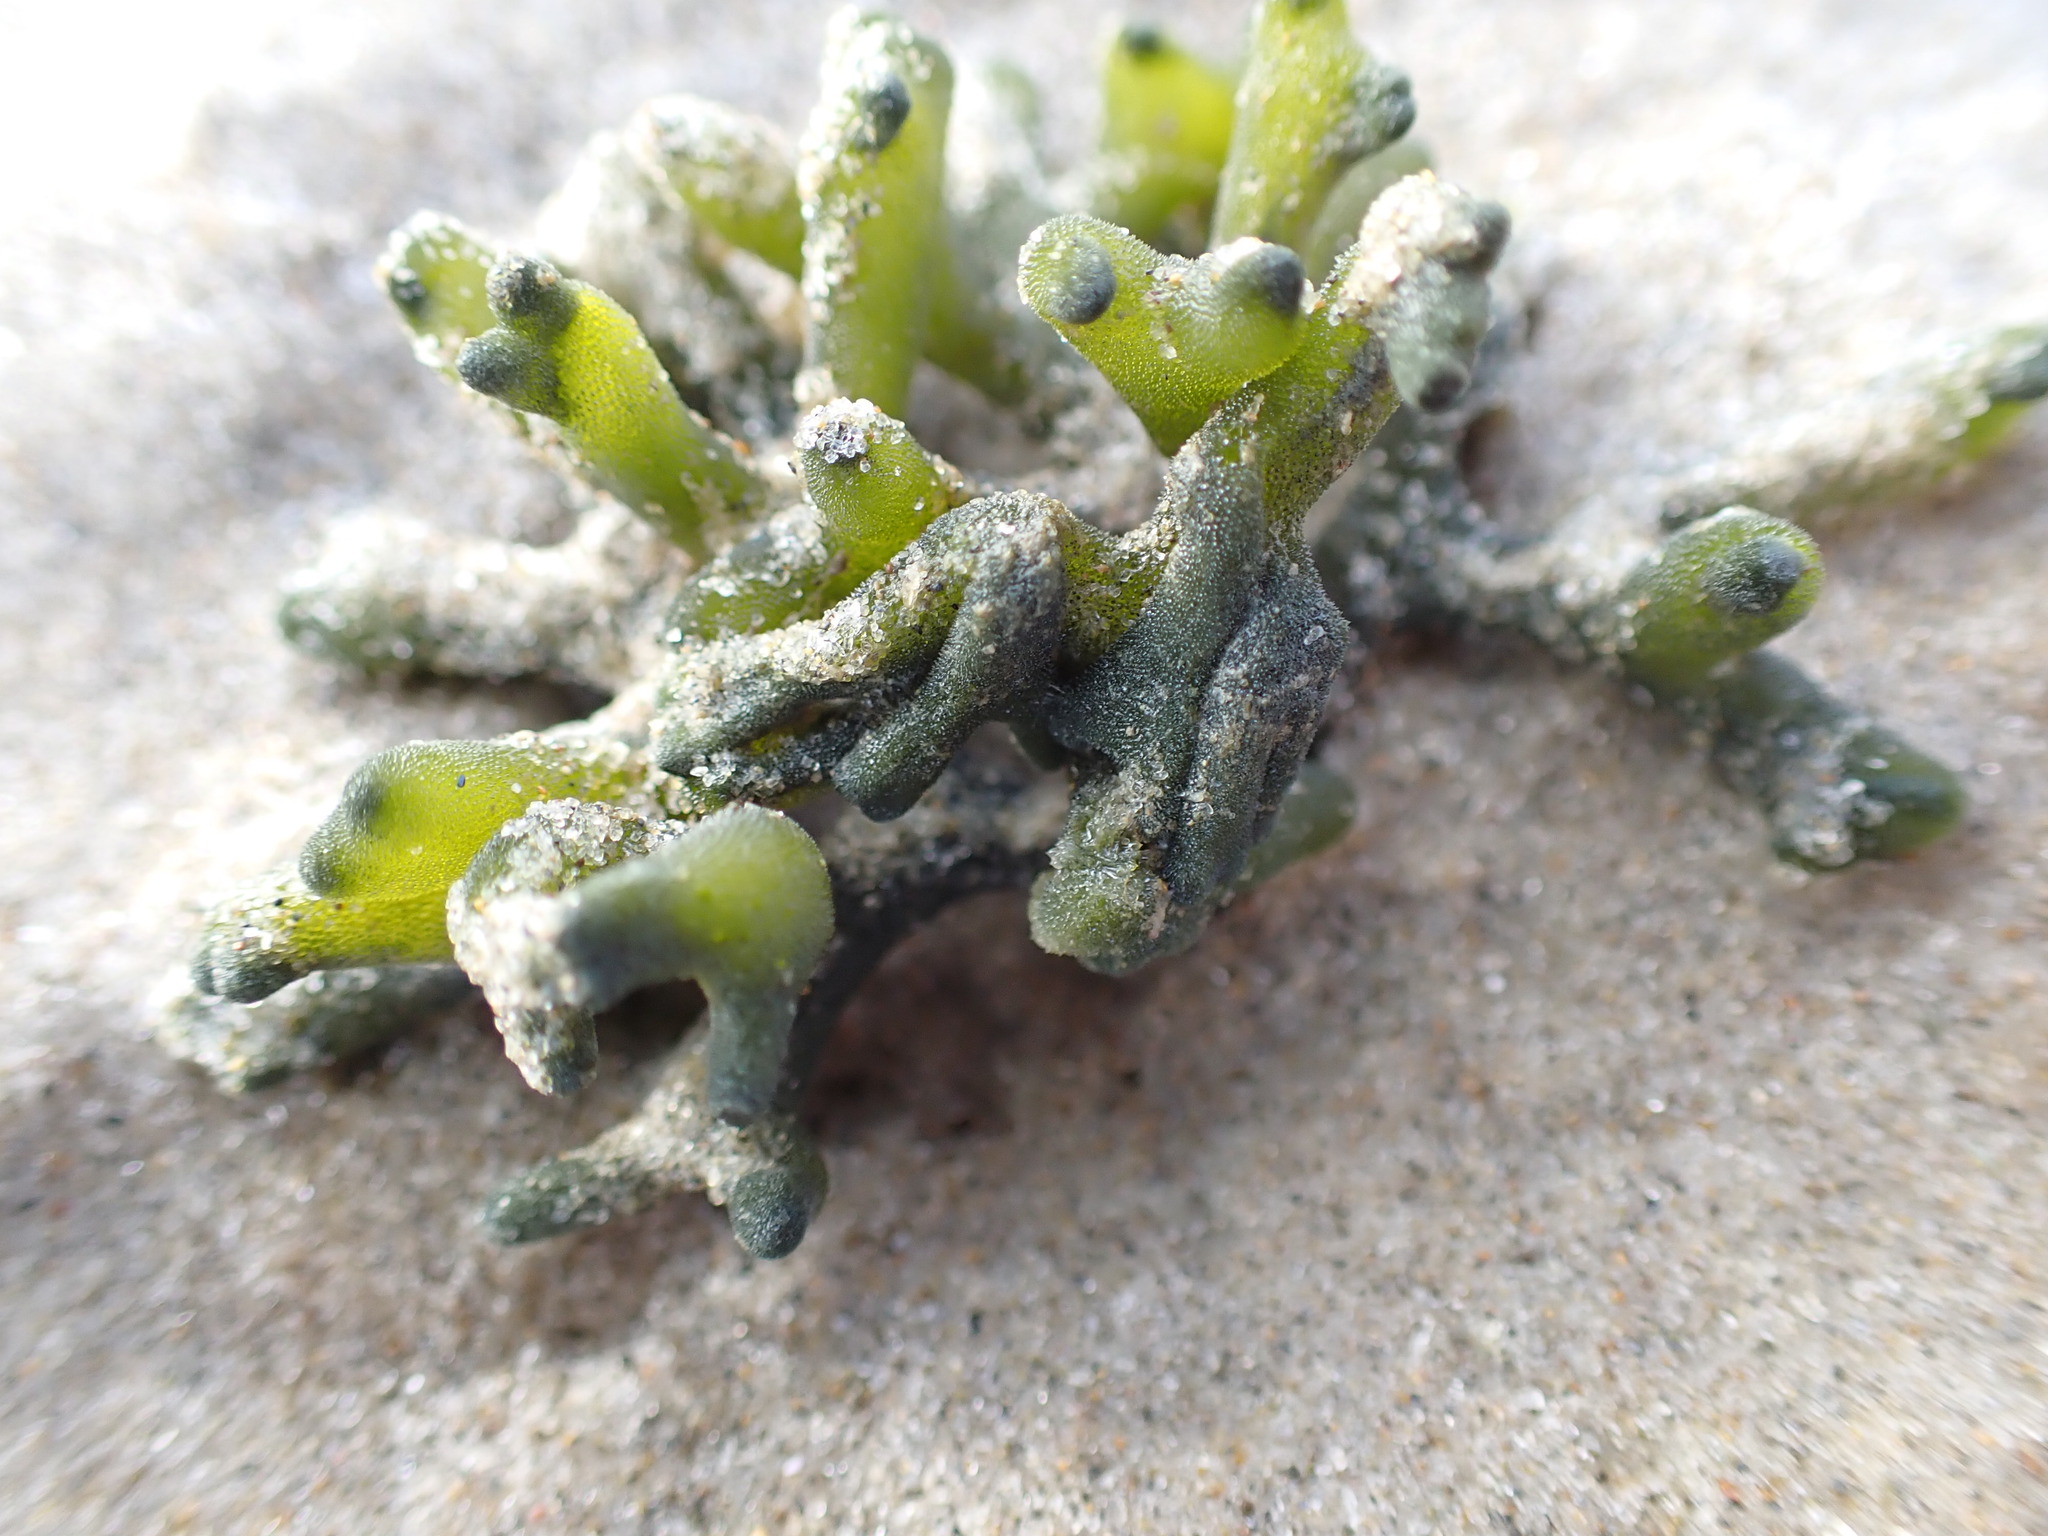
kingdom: Plantae
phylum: Chlorophyta
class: Ulvophyceae
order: Bryopsidales
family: Codiaceae
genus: Codium
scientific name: Codium fragile
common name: Dead man's fingers
